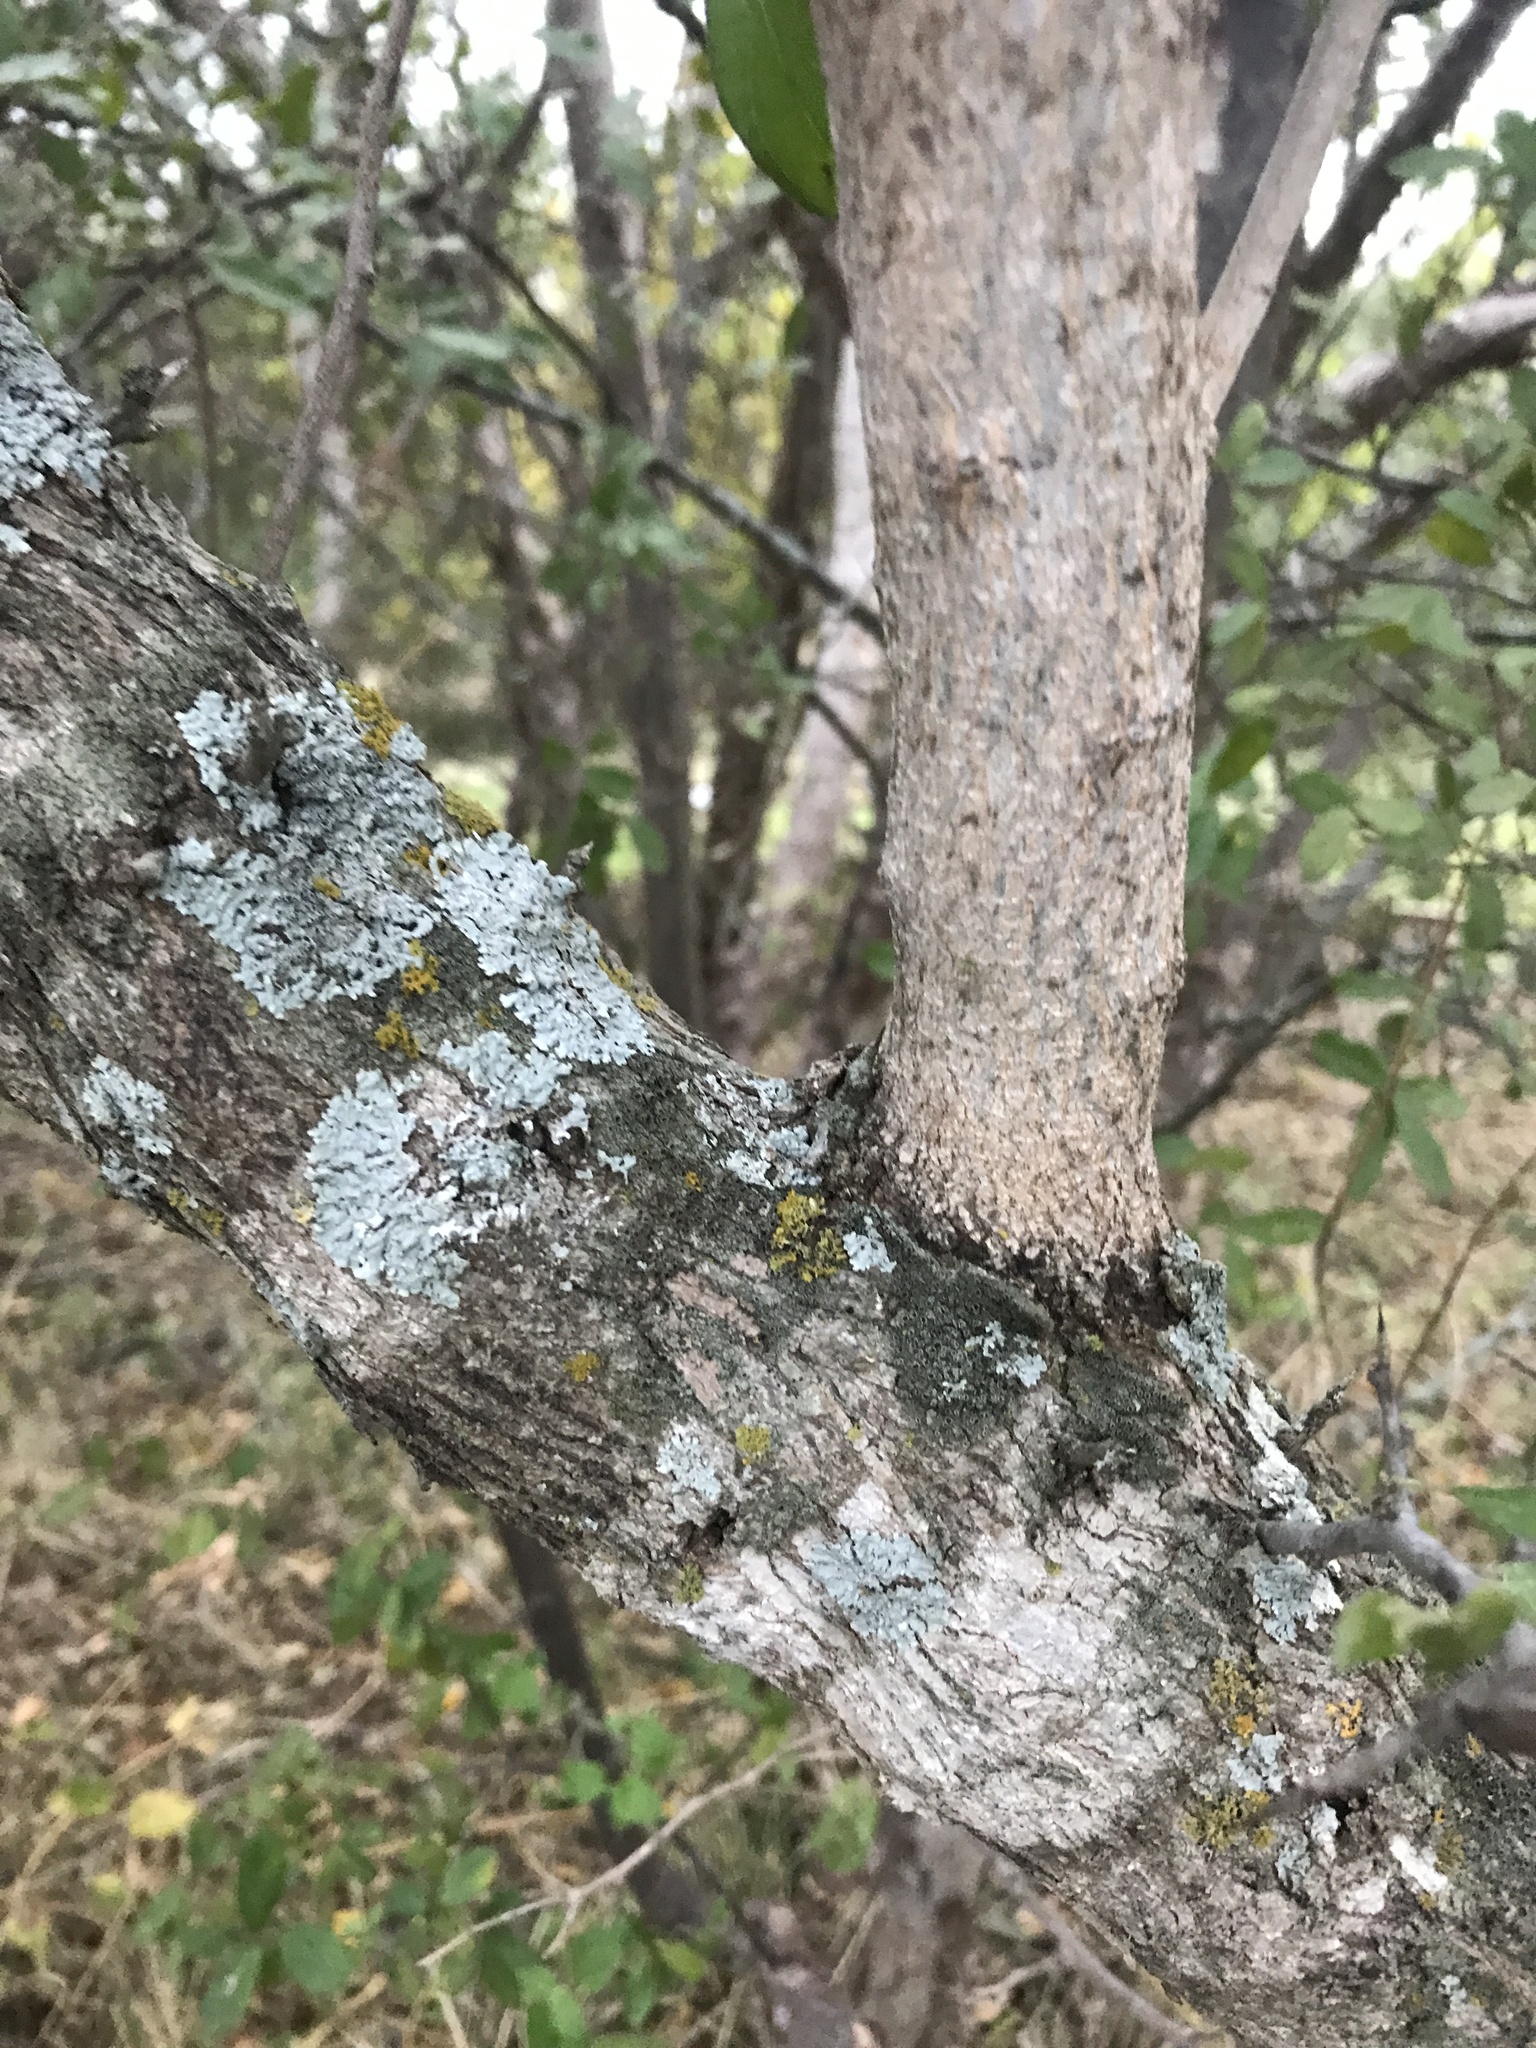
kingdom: Plantae
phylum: Tracheophyta
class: Magnoliopsida
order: Rosales
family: Rhamnaceae
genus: Condalia
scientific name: Condalia hookeri
